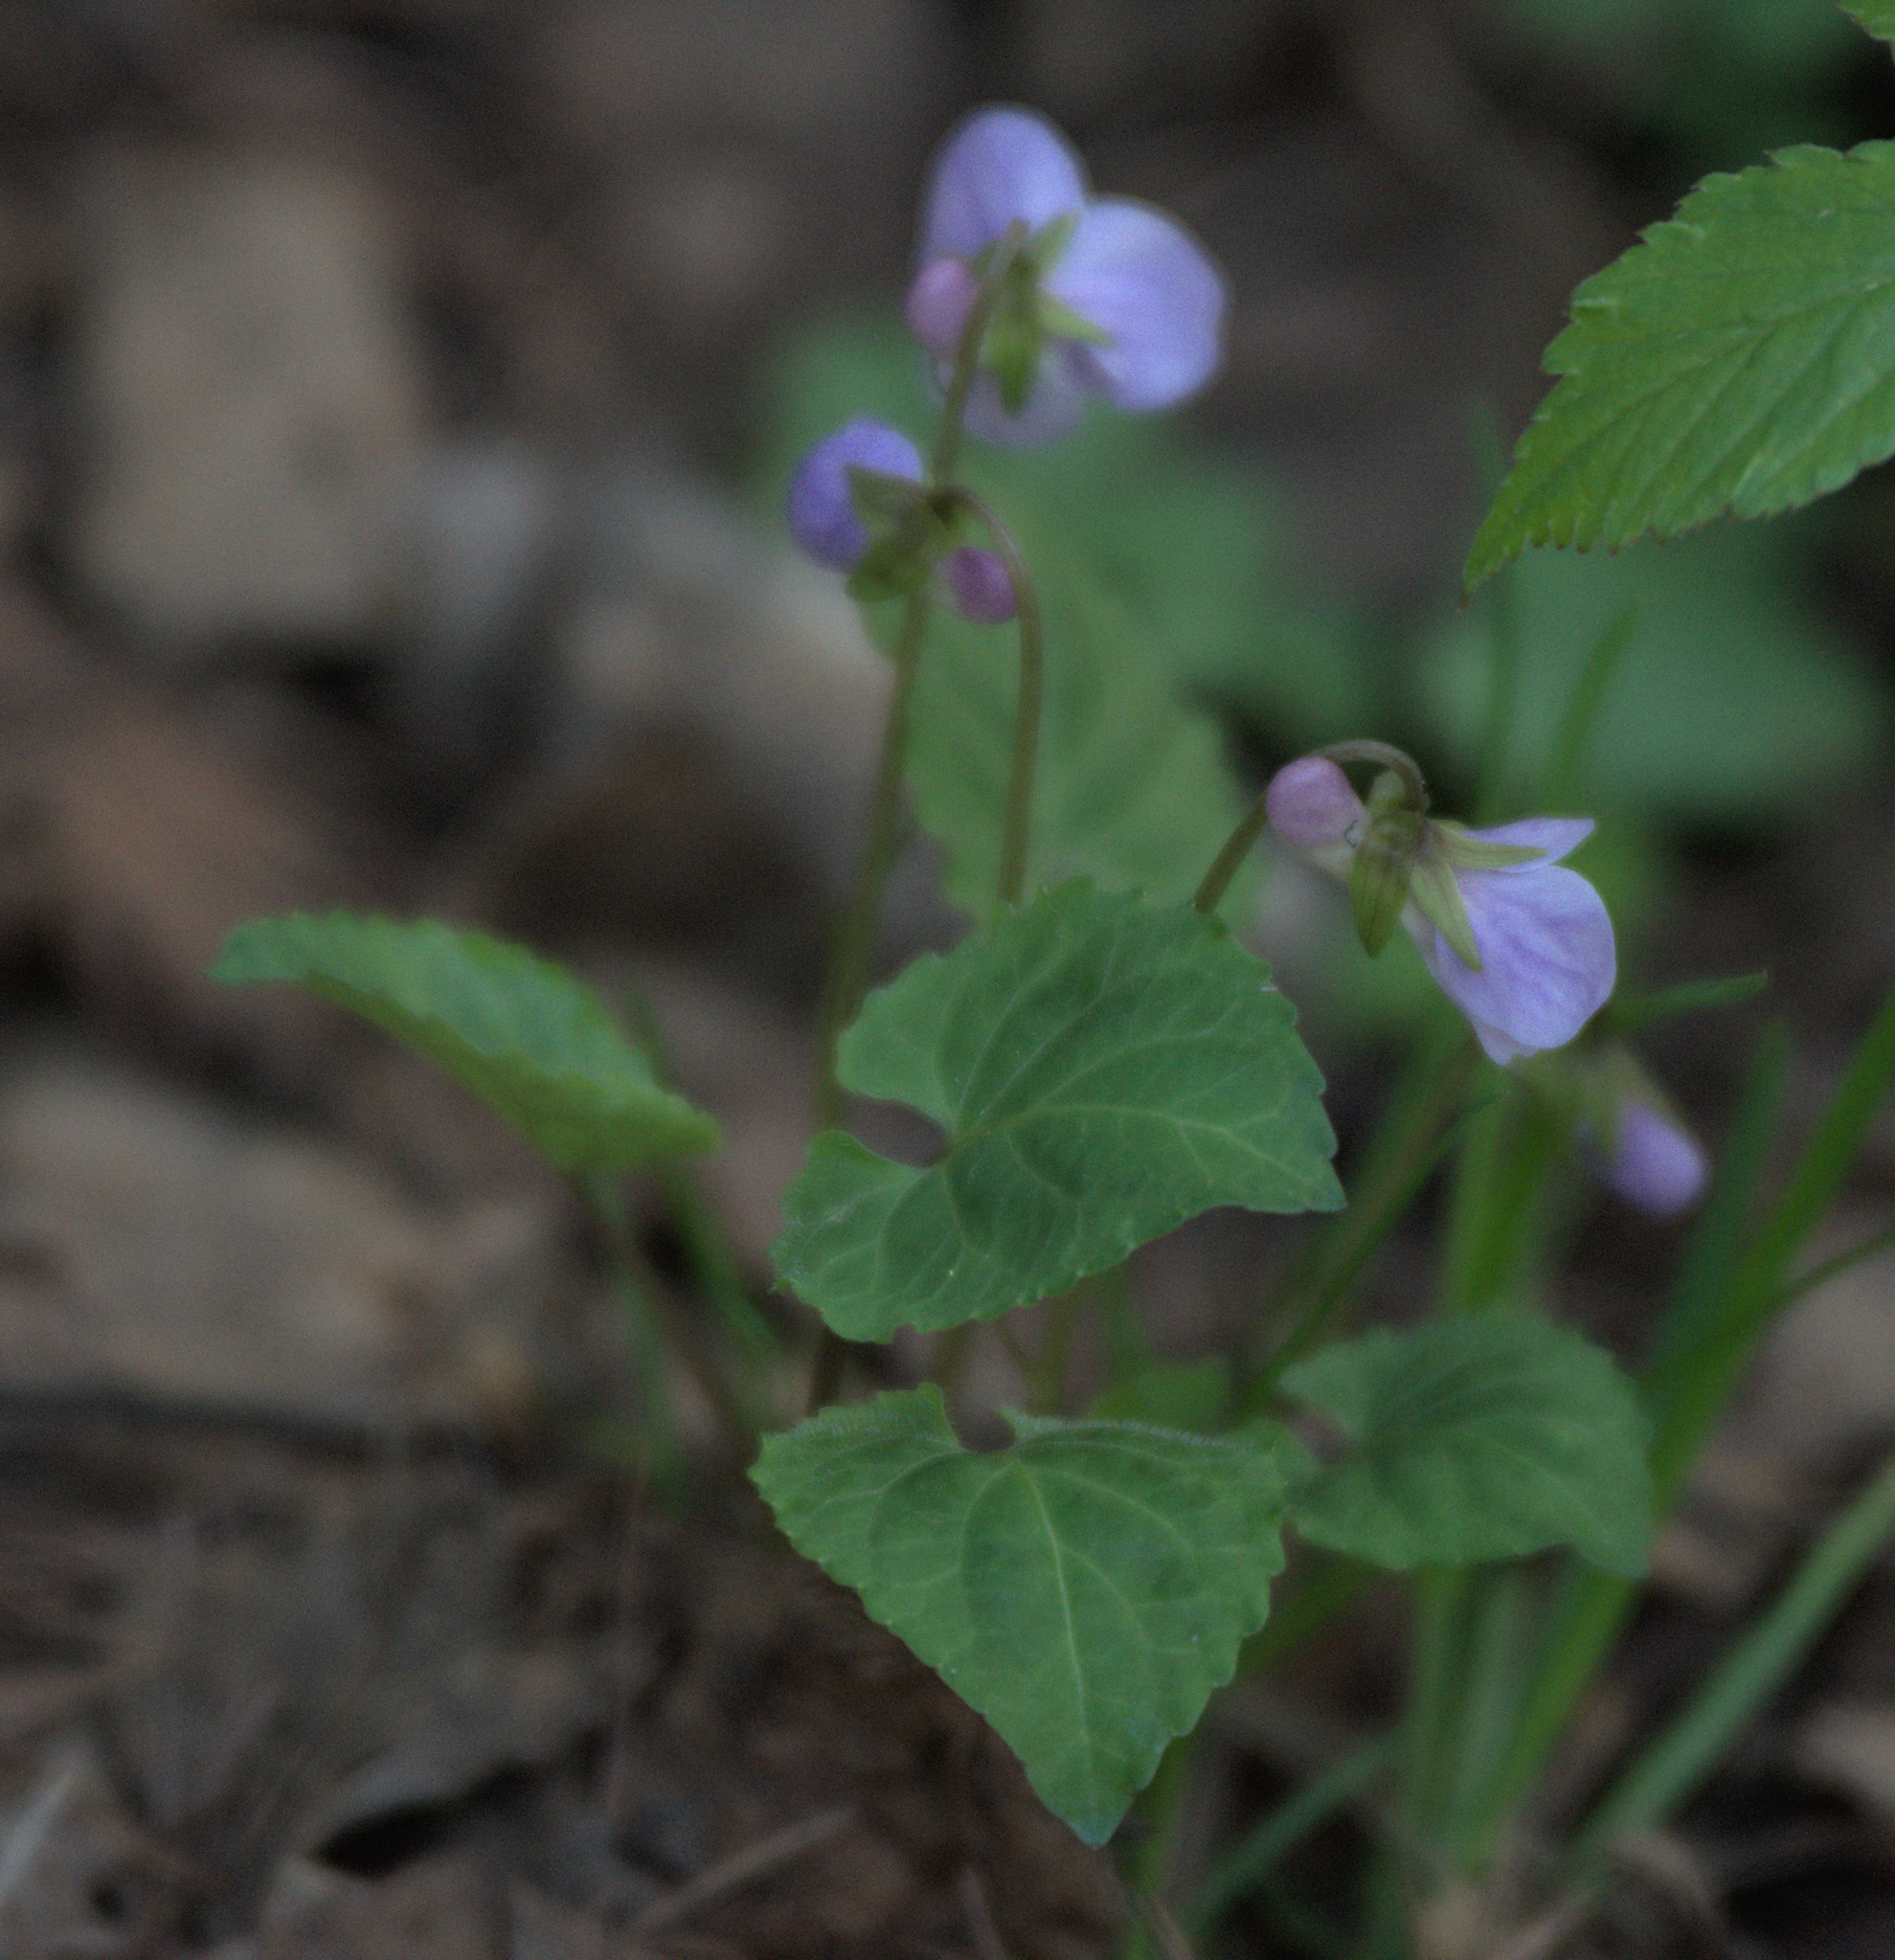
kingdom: Plantae
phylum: Tracheophyta
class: Magnoliopsida
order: Malpighiales
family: Violaceae
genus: Viola
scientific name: Viola selkirkii
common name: Selkirk's violet
